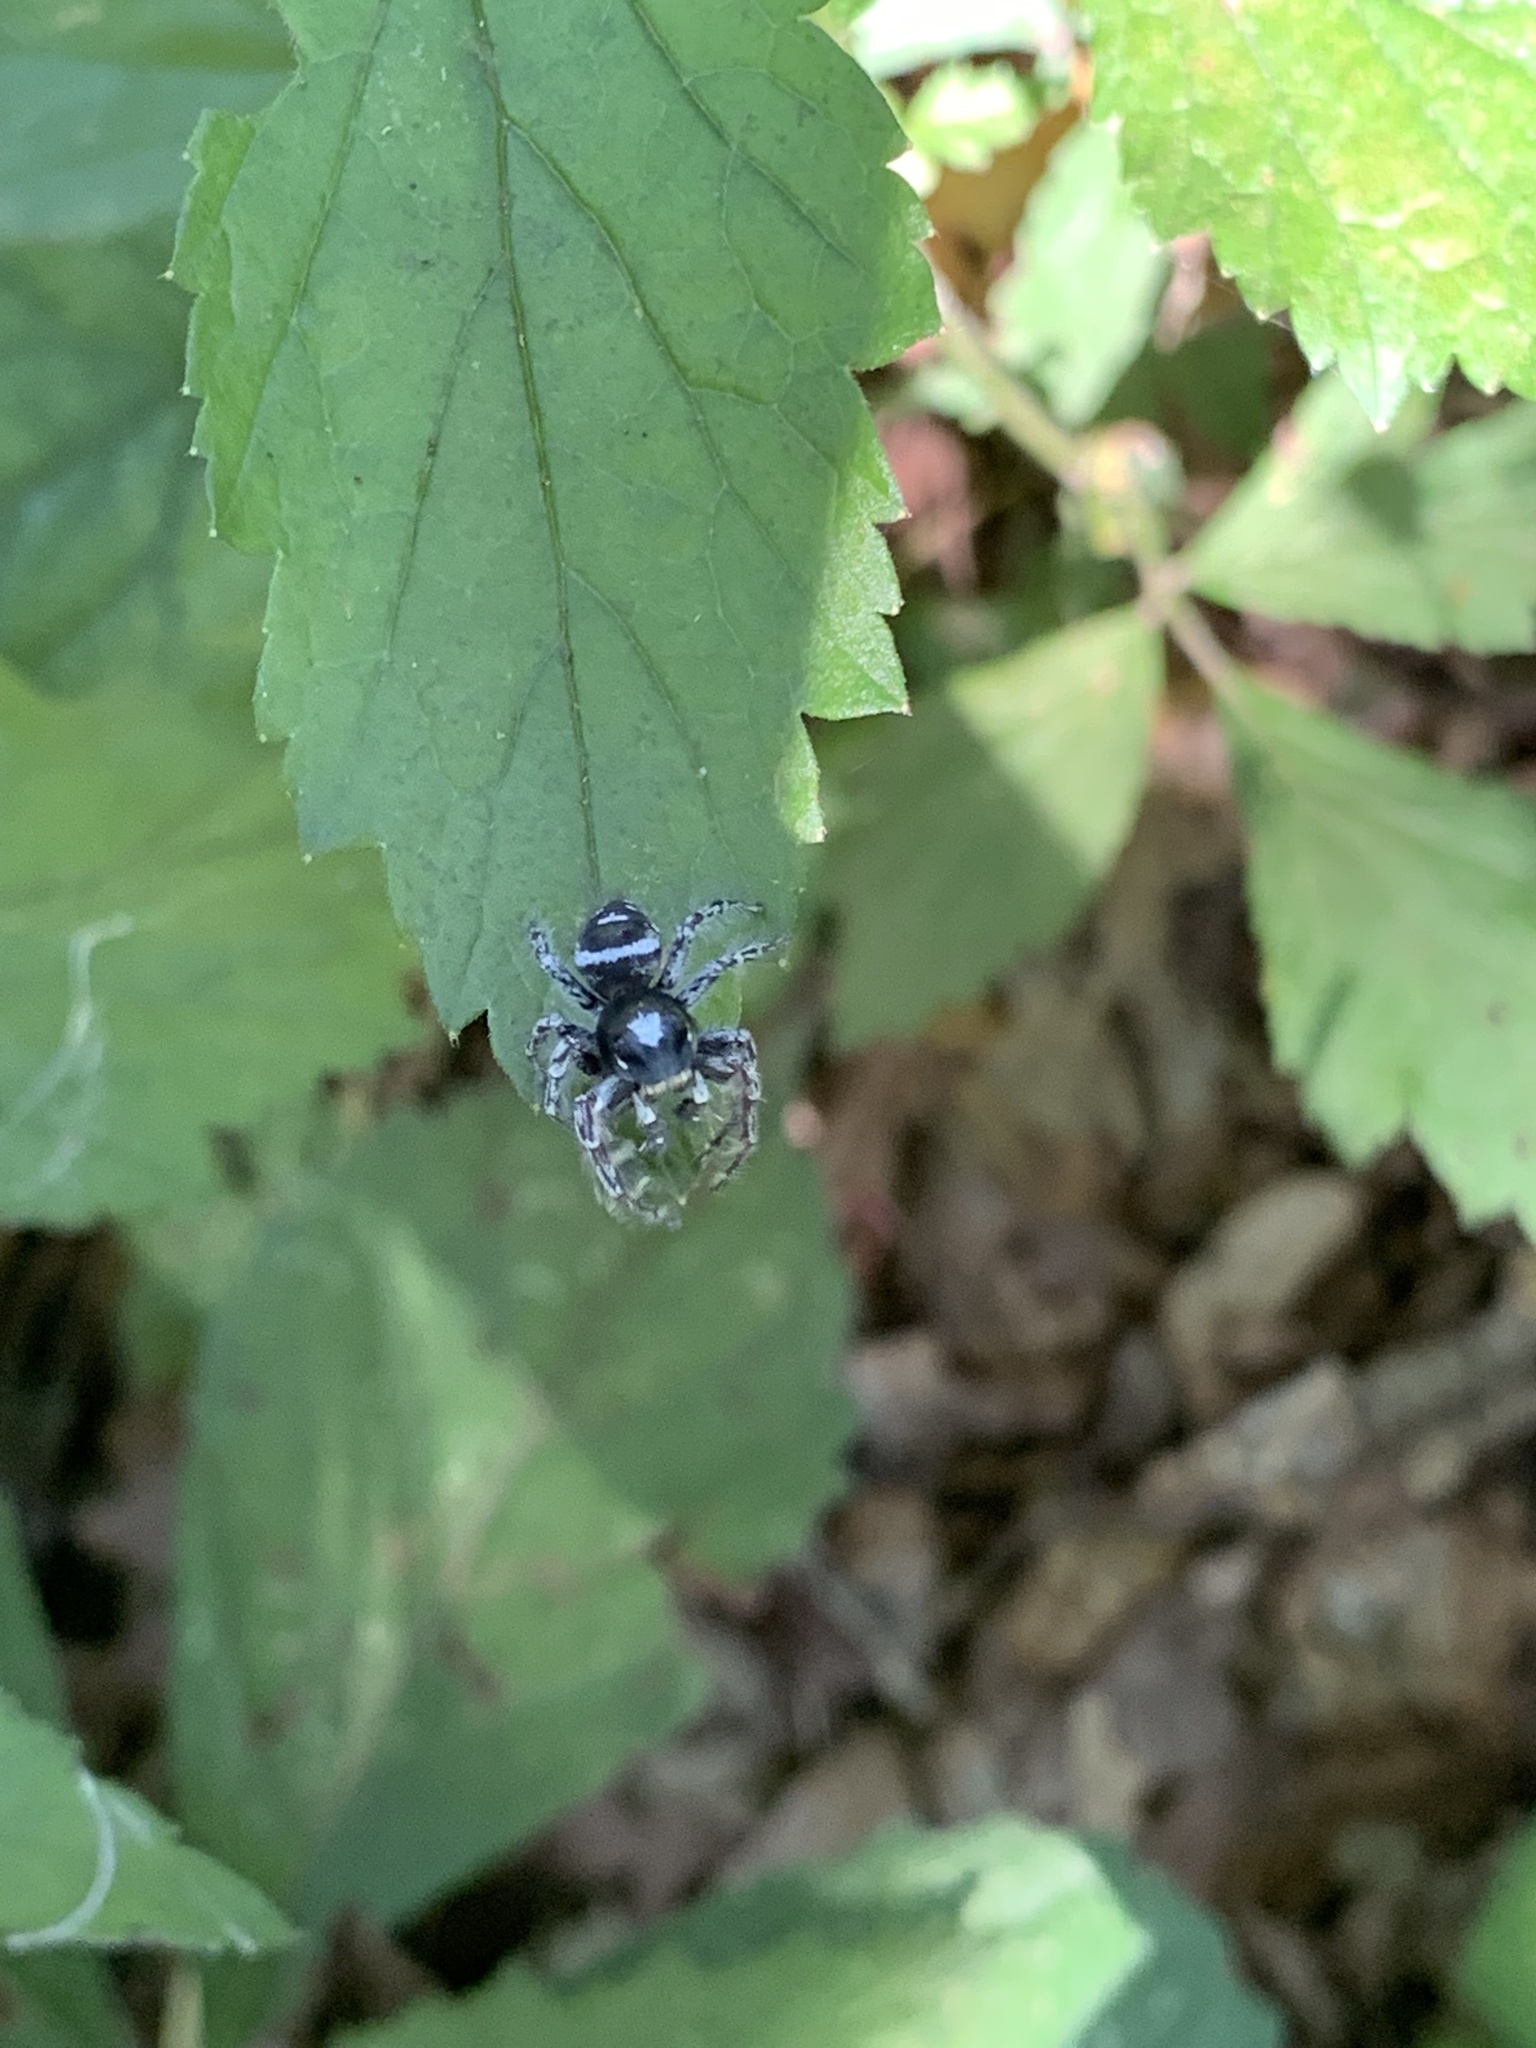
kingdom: Animalia
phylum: Arthropoda
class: Arachnida
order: Araneae
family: Salticidae
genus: Phidippus
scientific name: Phidippus putnami
